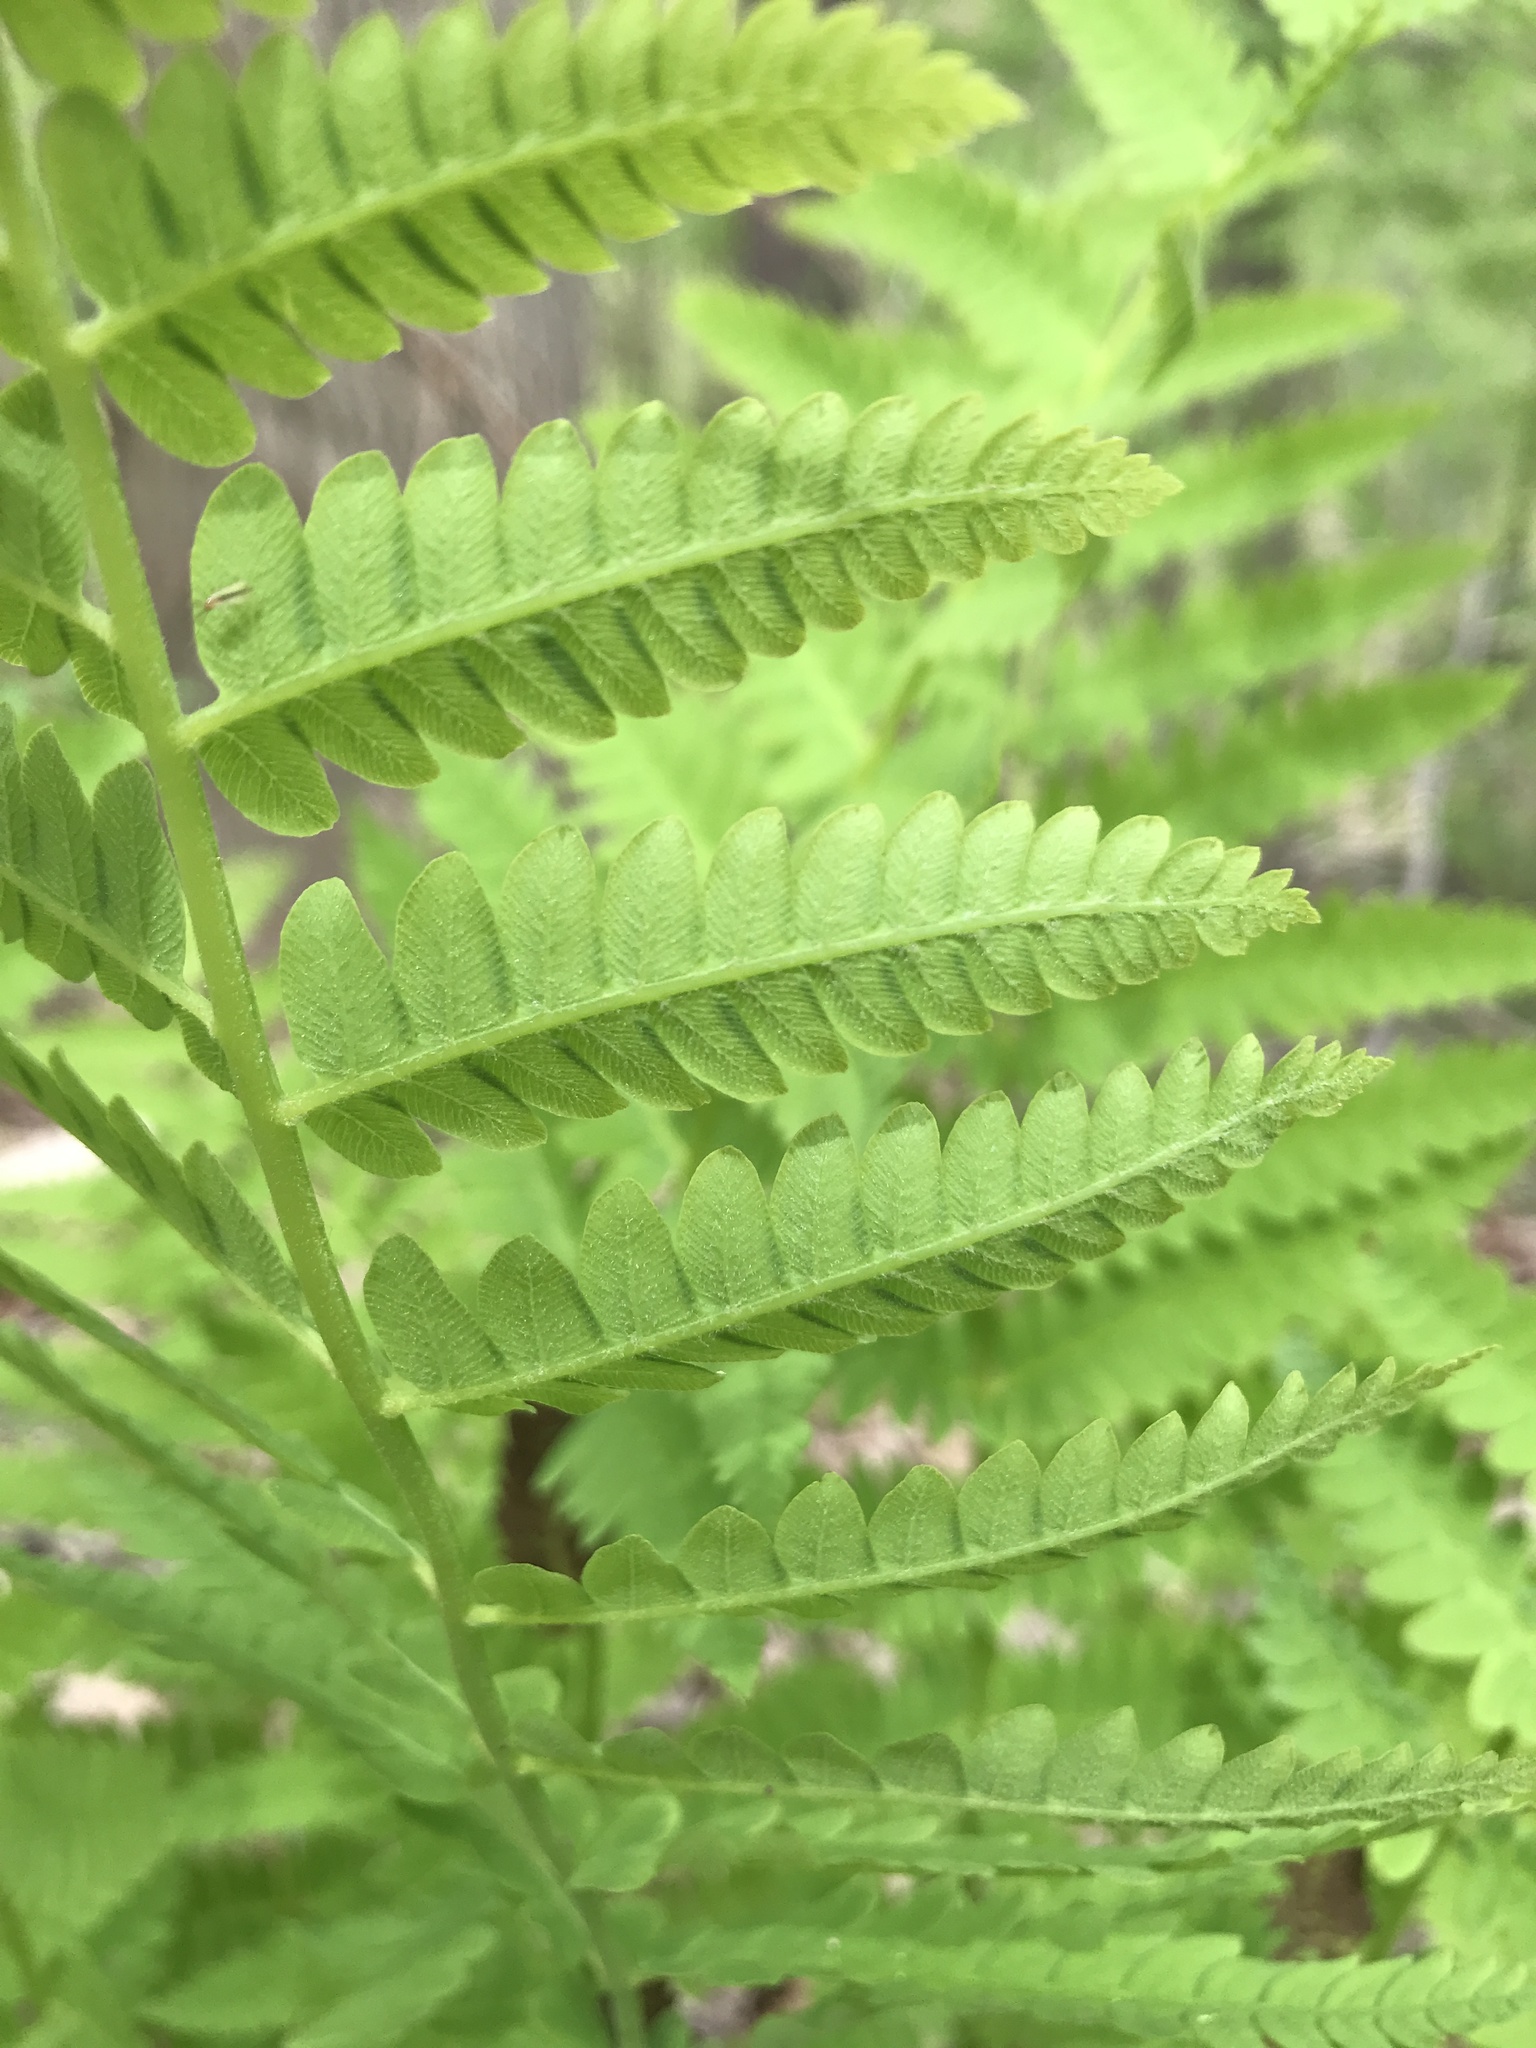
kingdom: Plantae
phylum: Tracheophyta
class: Polypodiopsida
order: Osmundales
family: Osmundaceae
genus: Claytosmunda
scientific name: Claytosmunda claytoniana
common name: Clayton's fern
